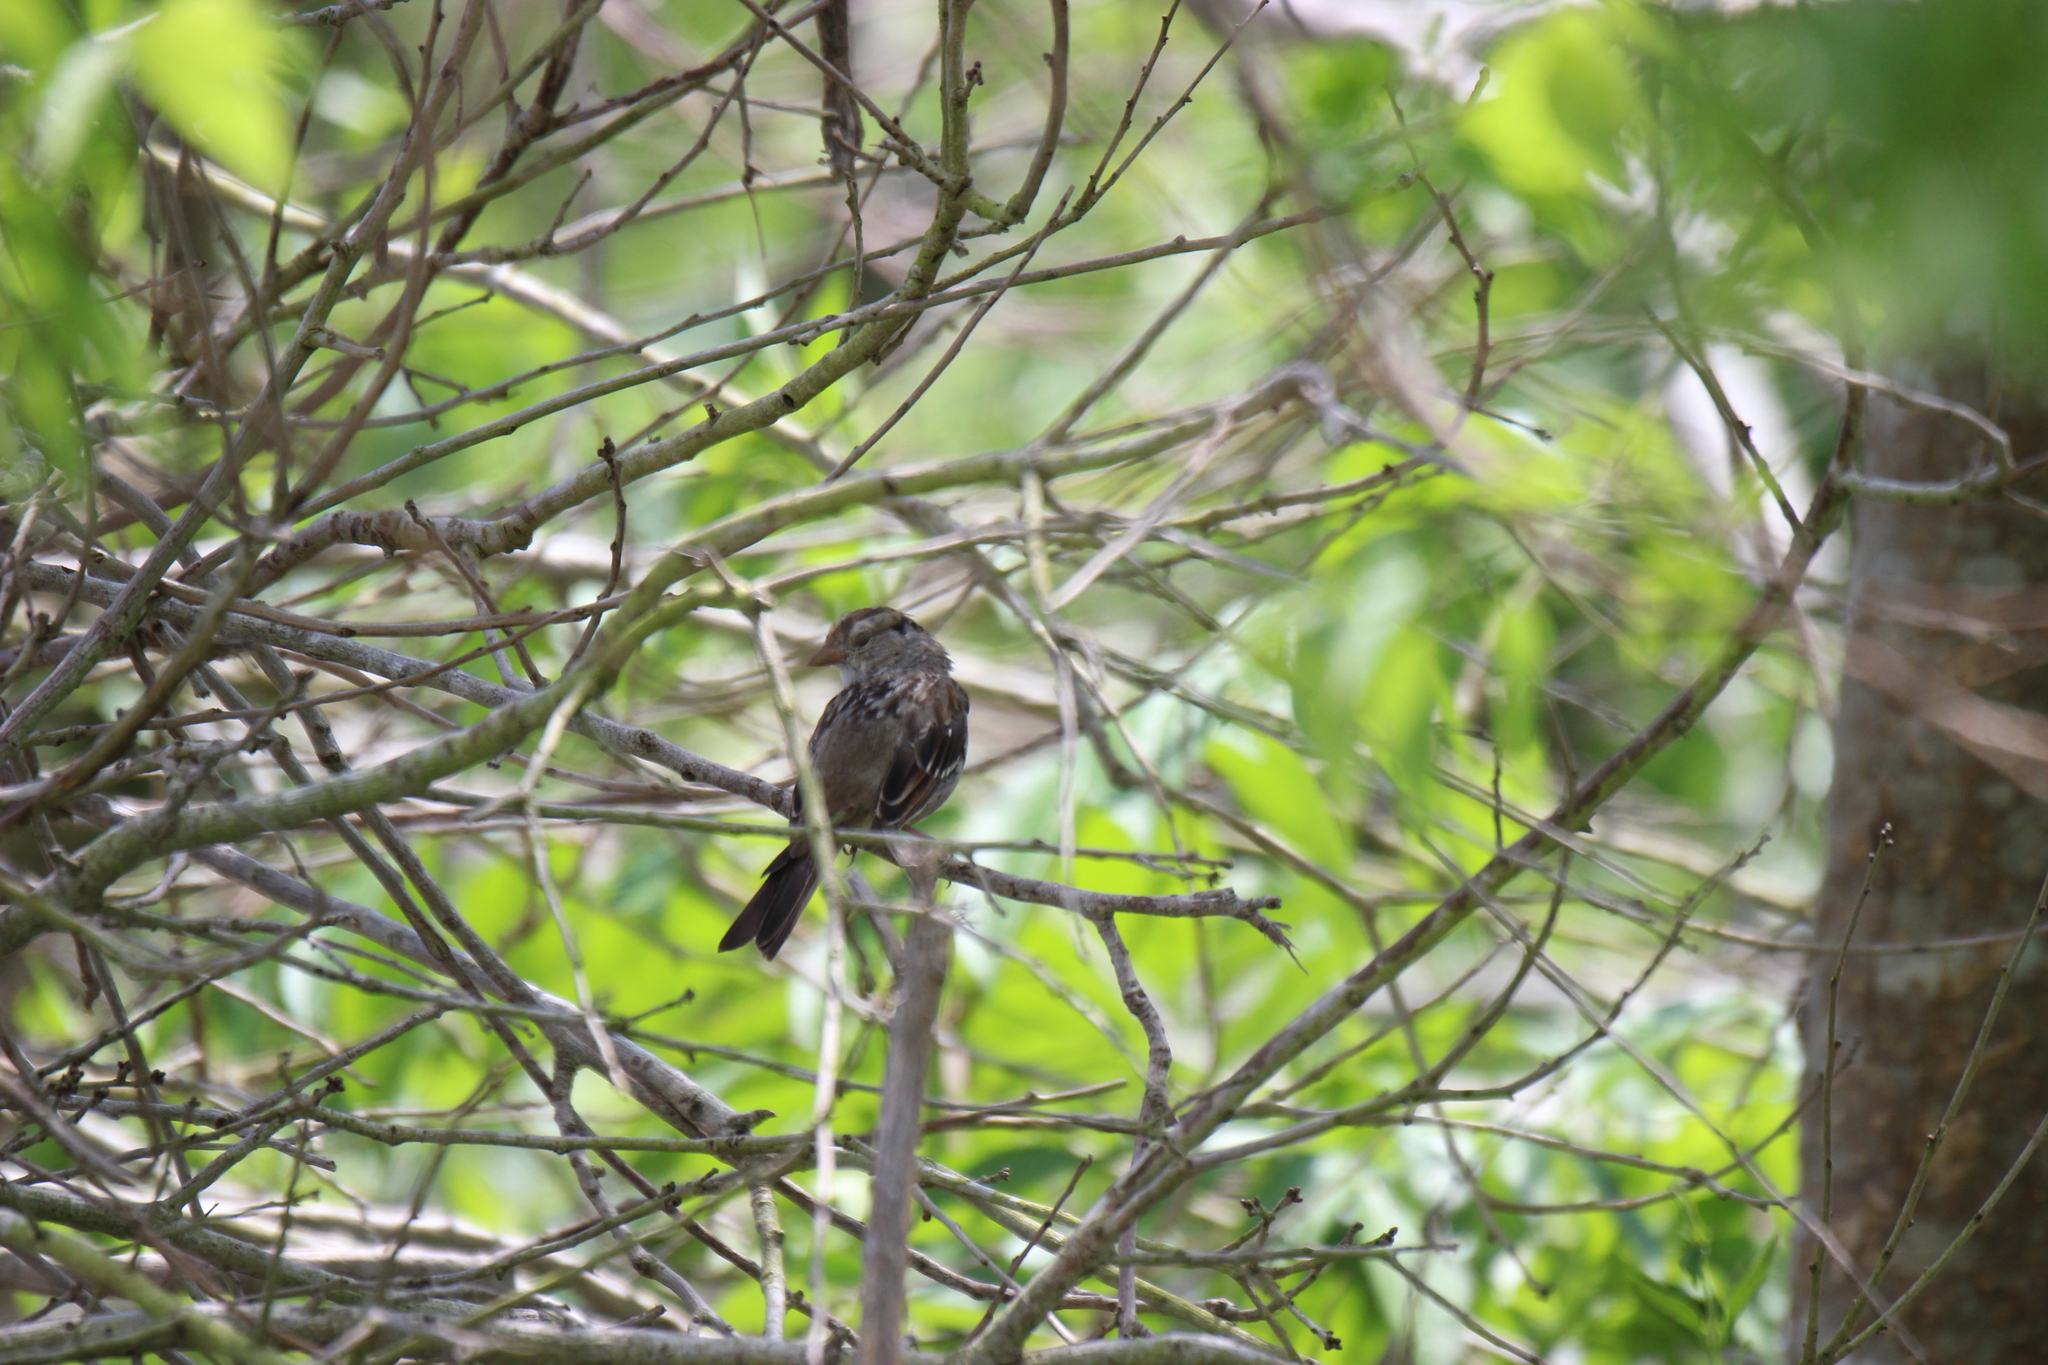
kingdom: Animalia
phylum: Chordata
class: Aves
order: Passeriformes
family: Passerellidae
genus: Zonotrichia
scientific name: Zonotrichia leucophrys
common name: White-crowned sparrow
